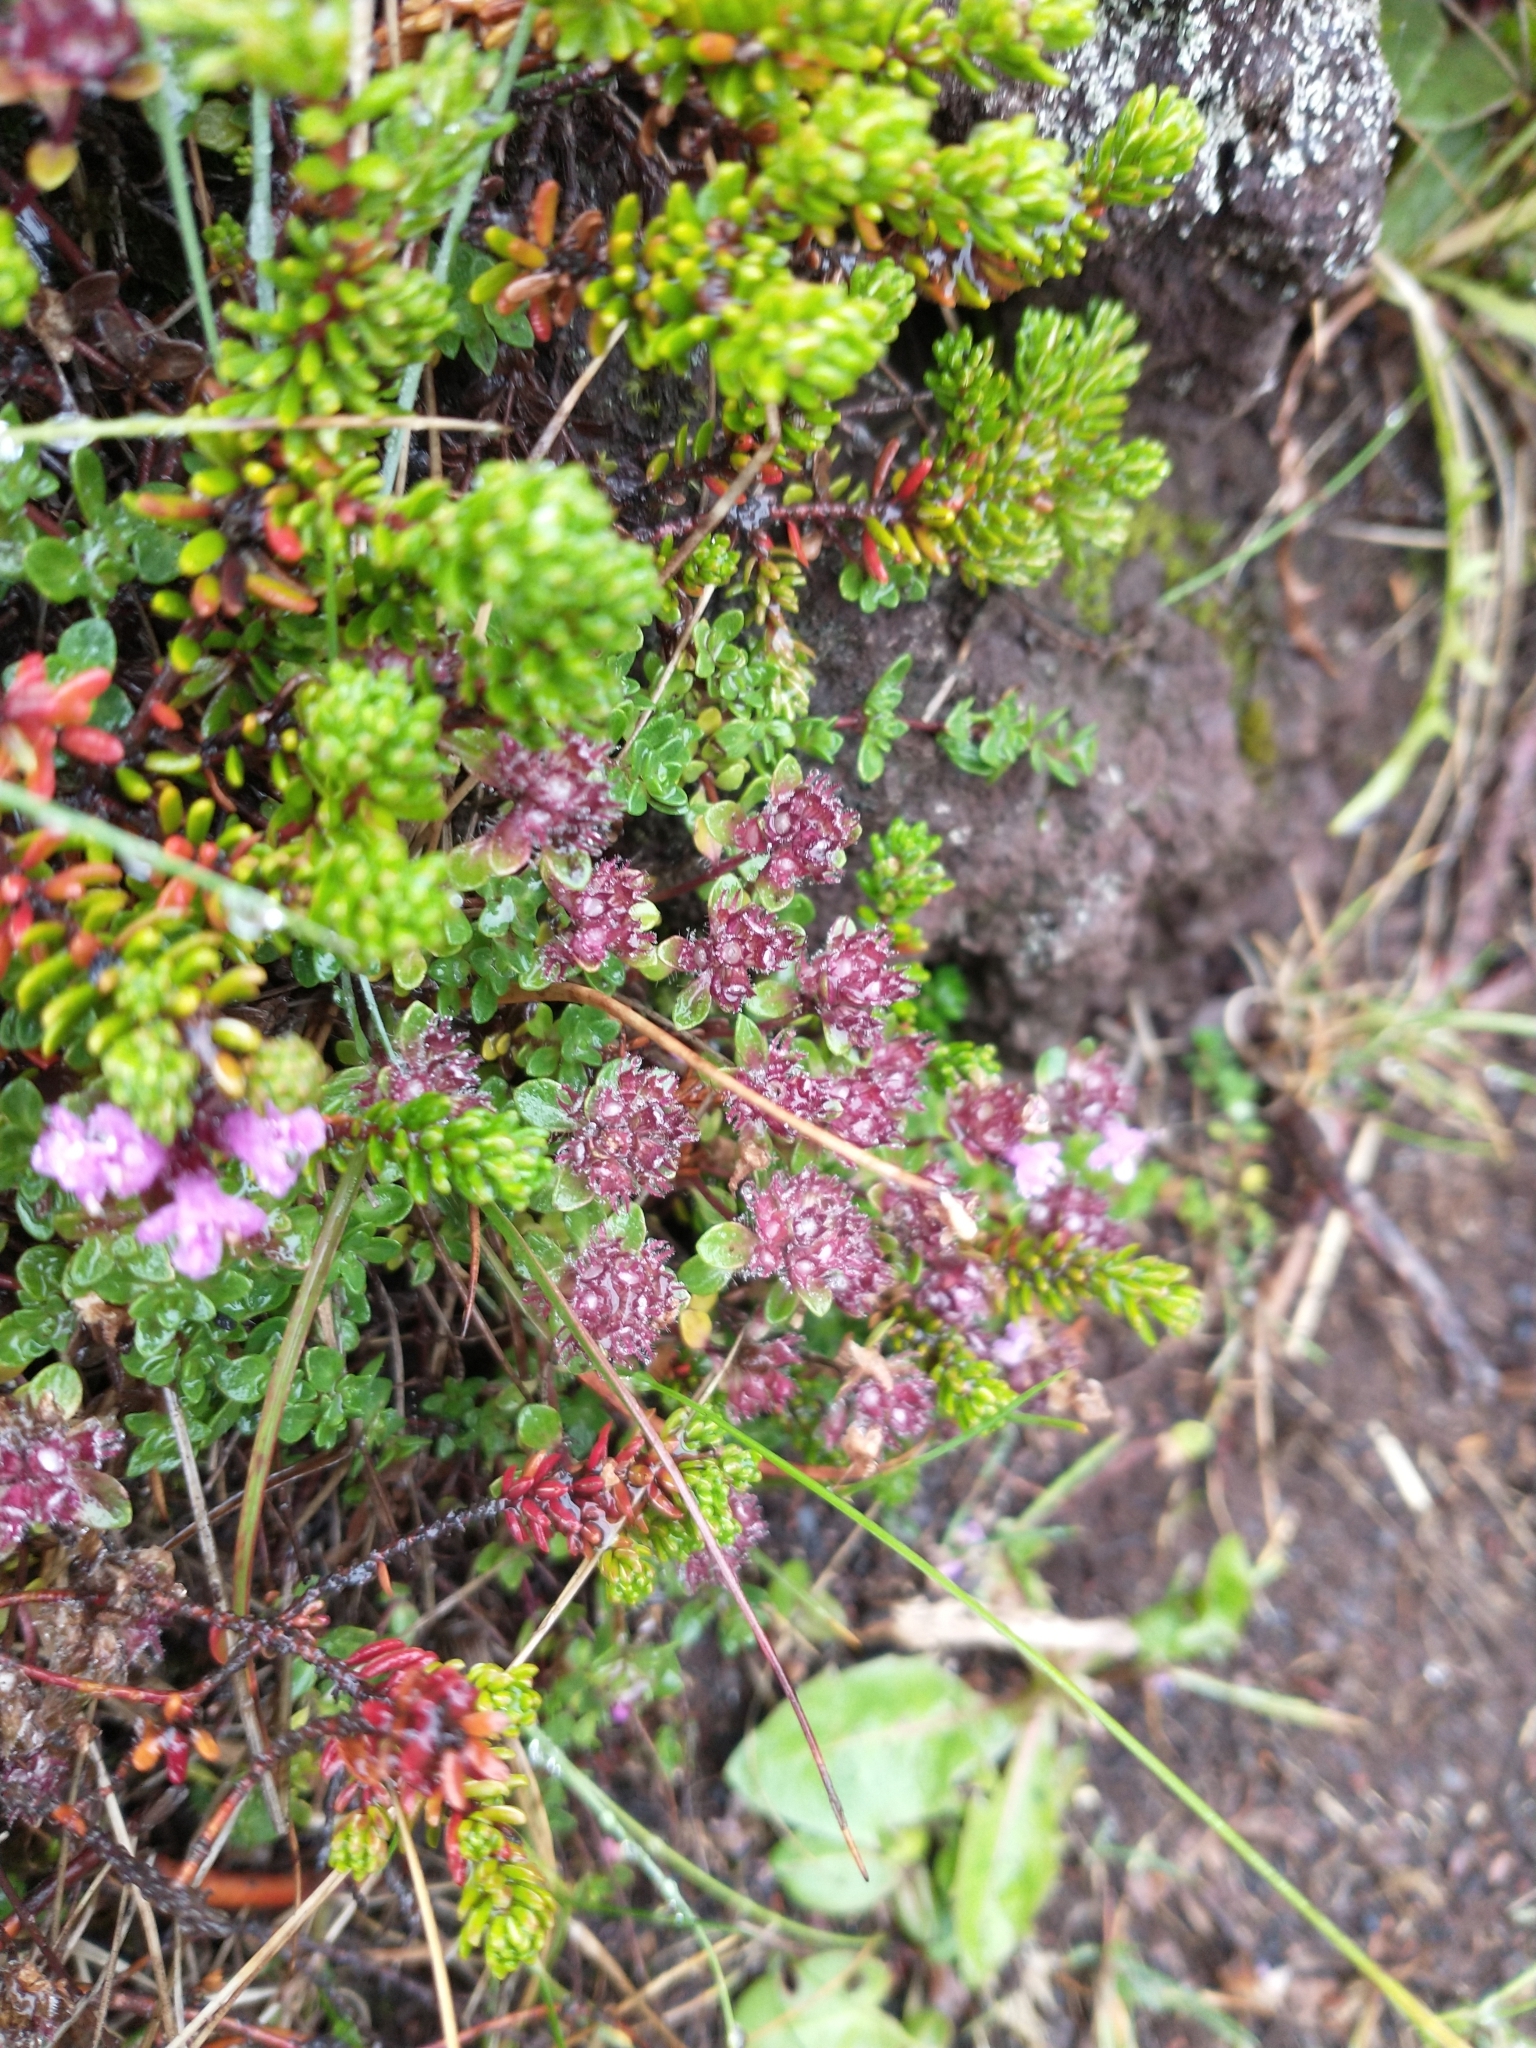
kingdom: Plantae
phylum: Tracheophyta
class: Magnoliopsida
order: Lamiales
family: Lamiaceae
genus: Thymus
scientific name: Thymus praecox
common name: Wild thyme
